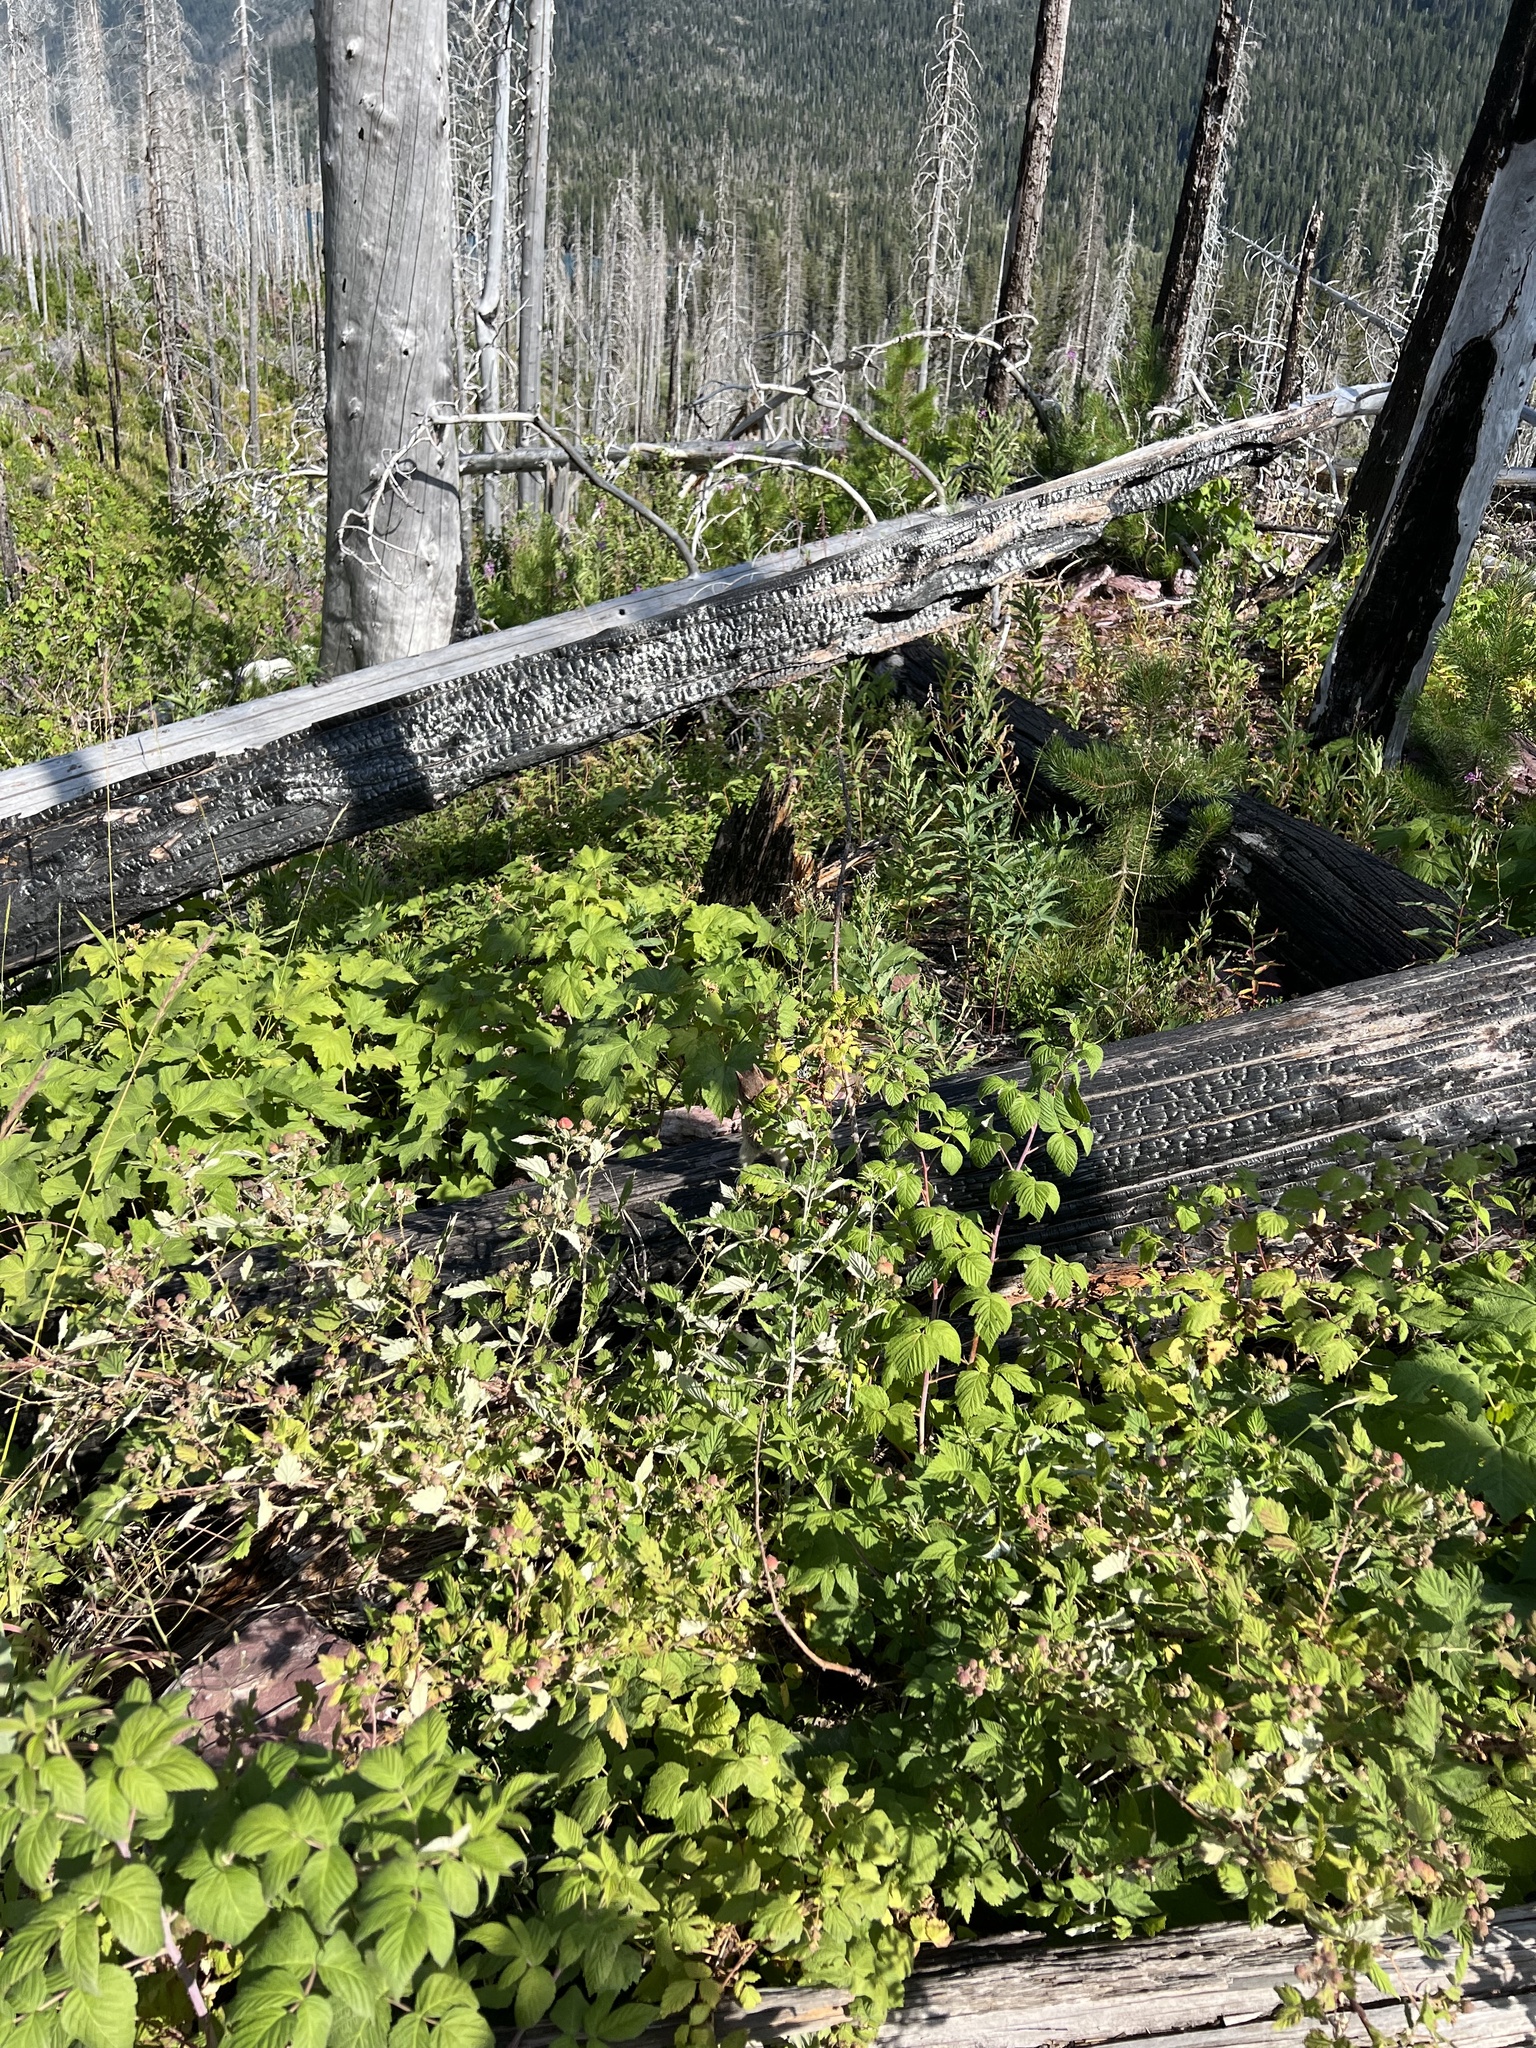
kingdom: Animalia
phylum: Chordata
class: Mammalia
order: Rodentia
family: Sciuridae
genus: Callospermophilus
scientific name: Callospermophilus lateralis
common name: Golden-mantled ground squirrel
